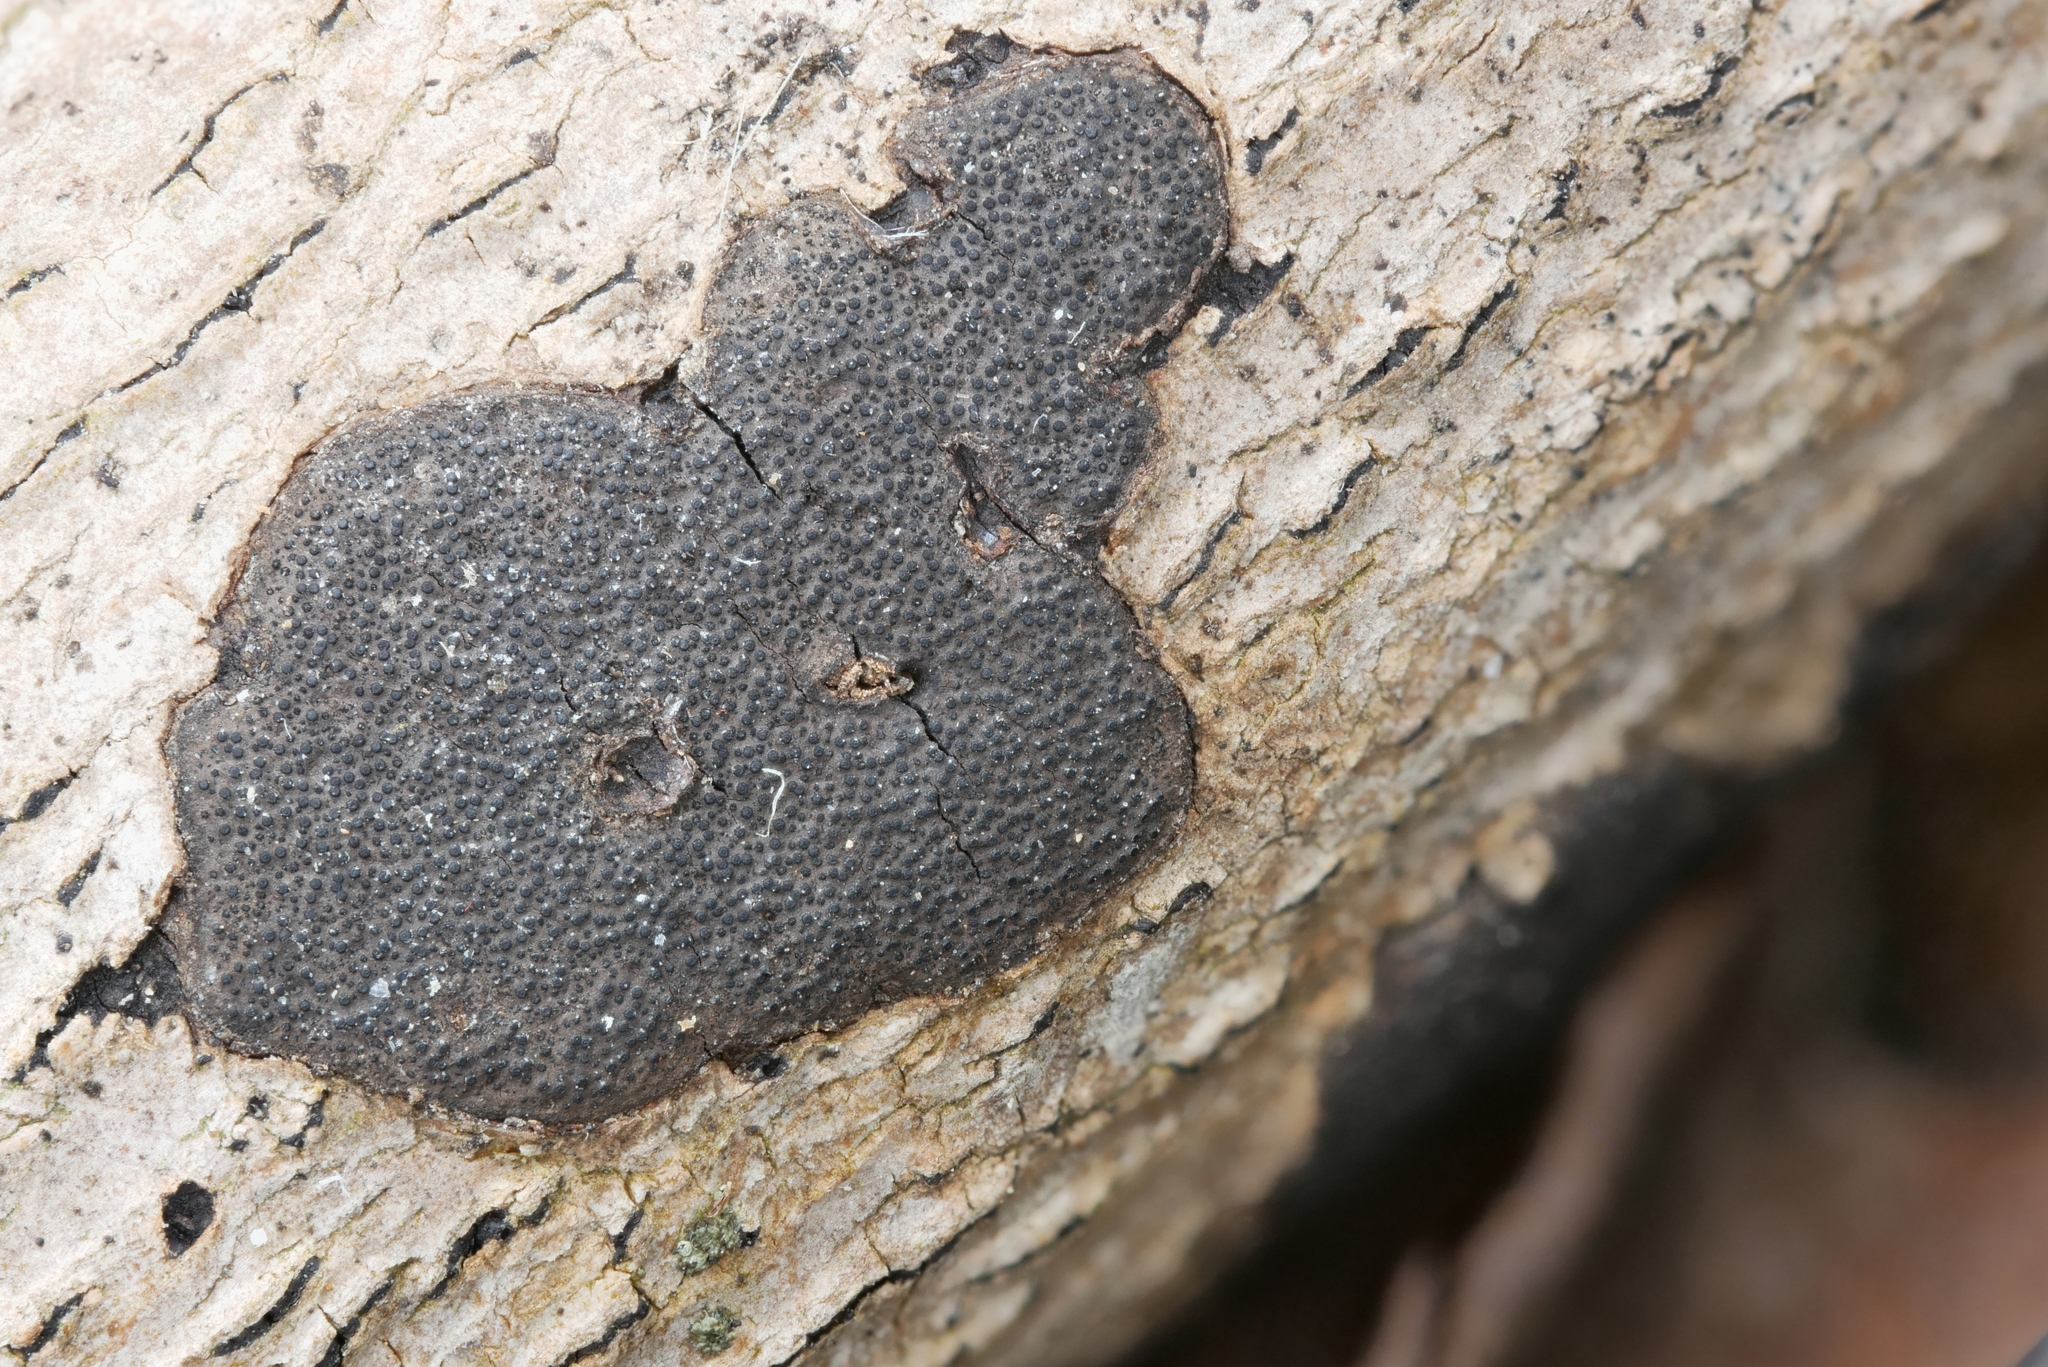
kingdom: Fungi
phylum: Ascomycota
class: Sordariomycetes
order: Xylariales
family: Graphostromataceae
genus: Graphostroma
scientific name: Graphostroma platystomum
